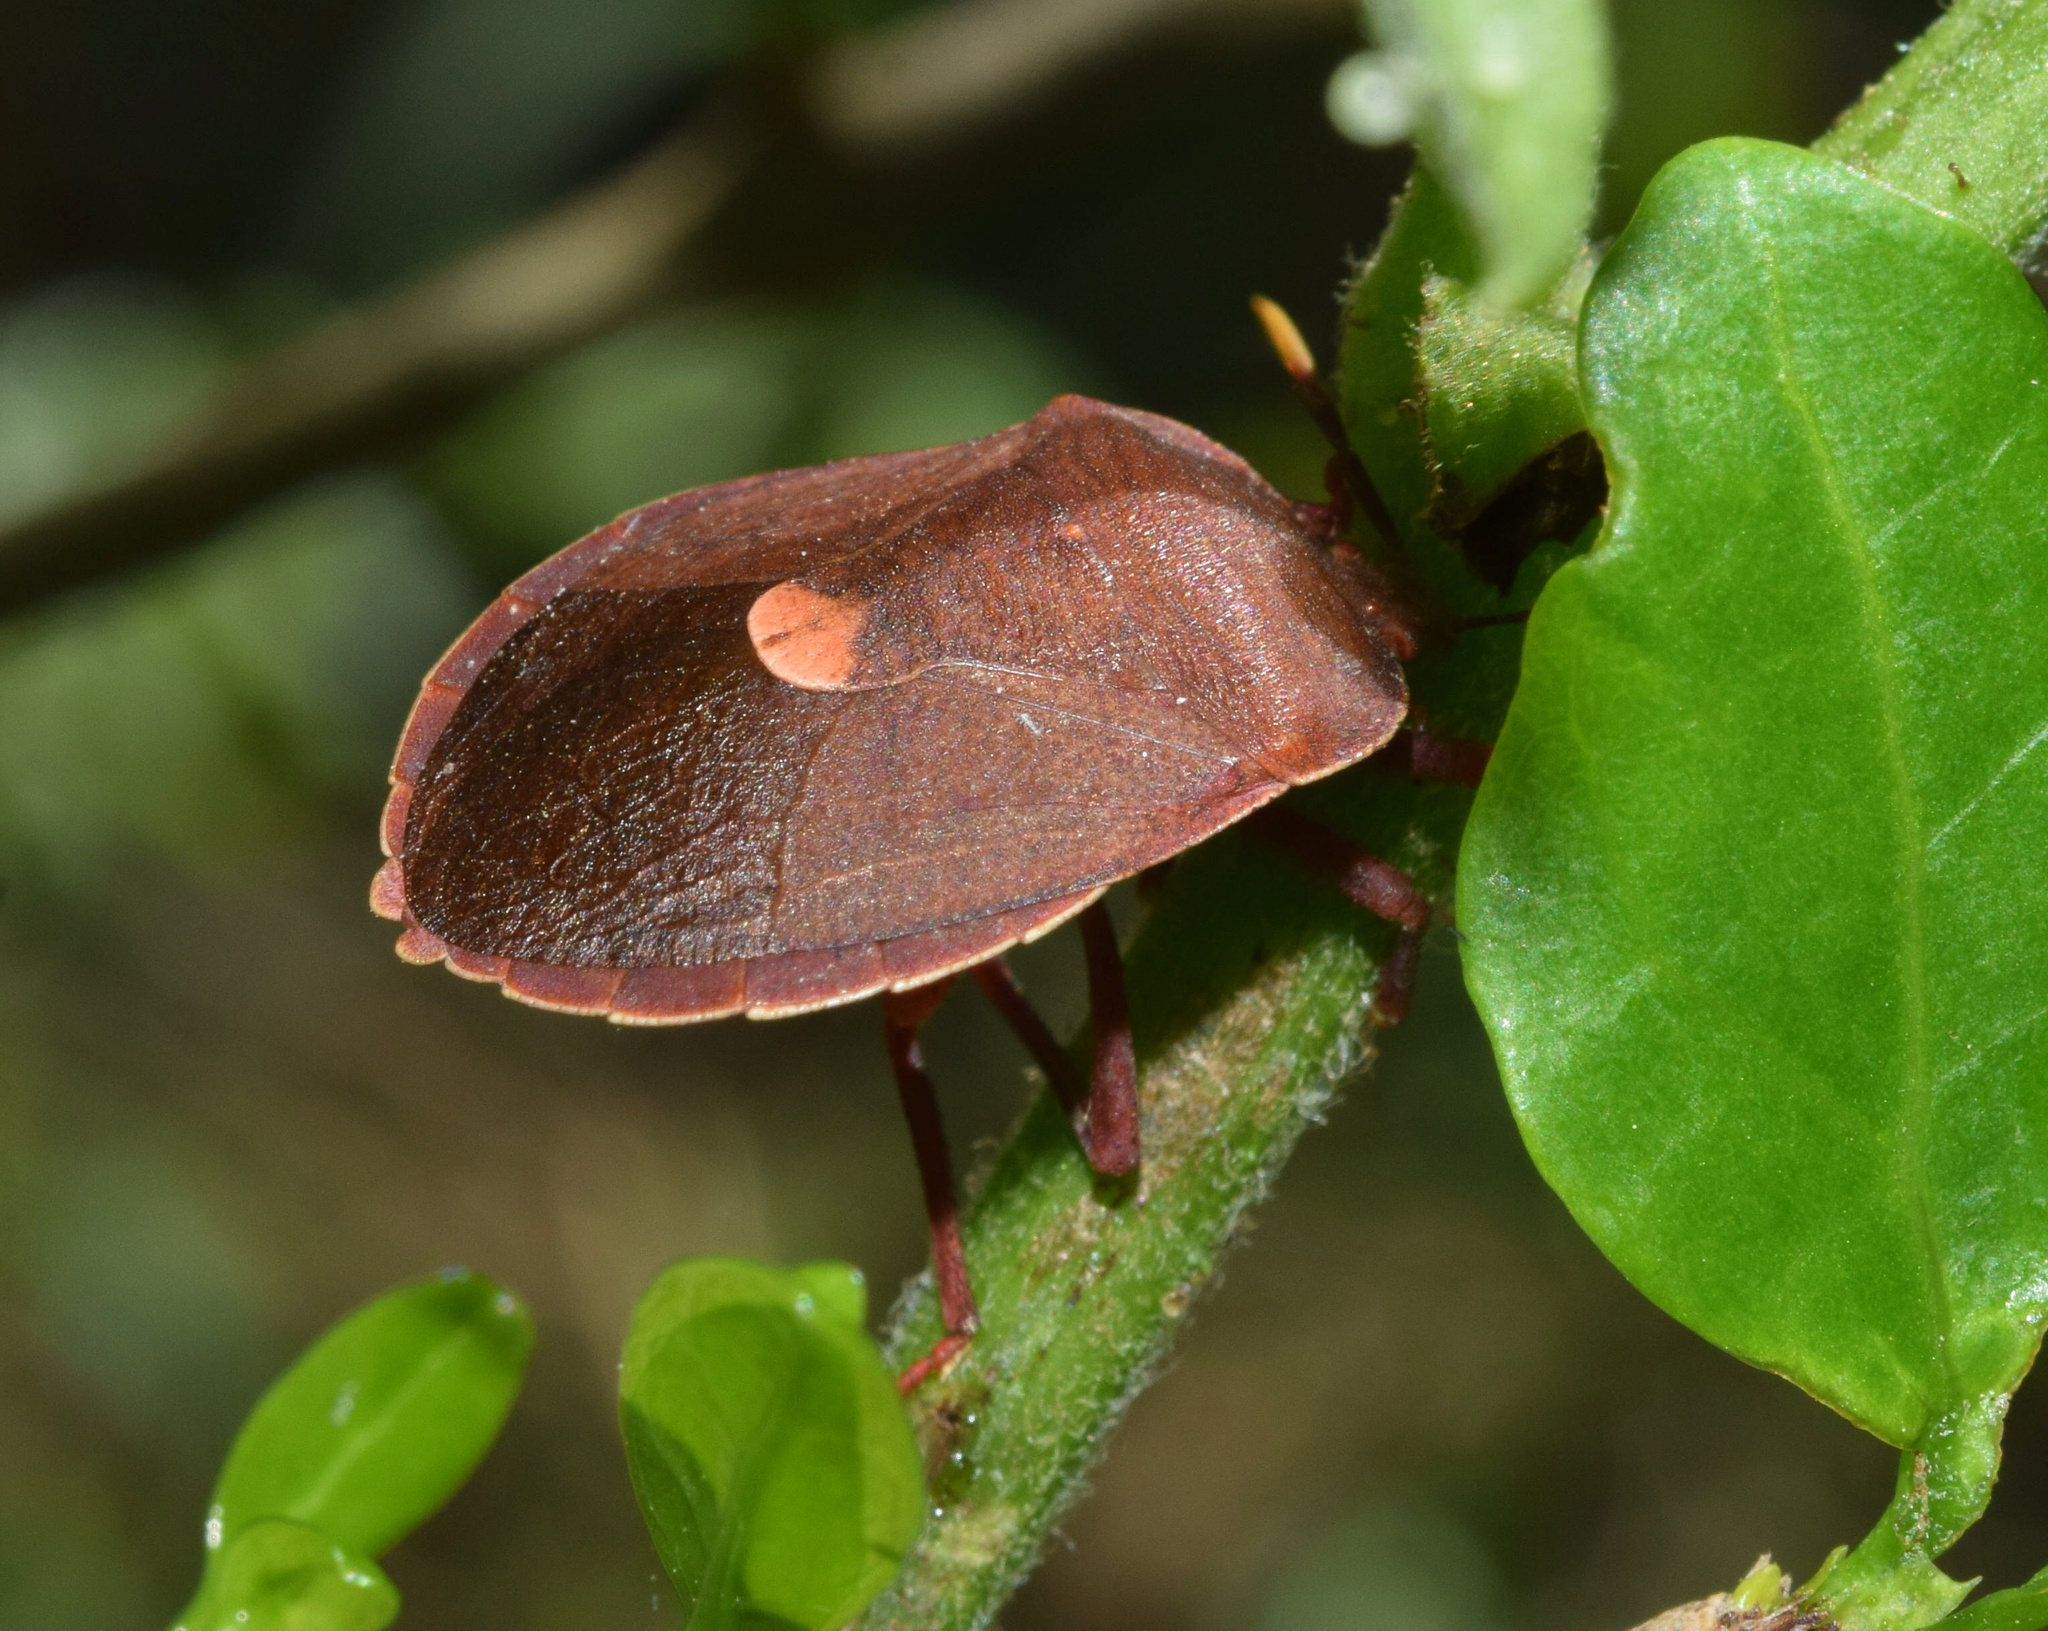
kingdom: Animalia
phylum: Arthropoda
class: Insecta
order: Hemiptera
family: Dinidoridae
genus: Coridiellus
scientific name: Coridiellus patruelis
